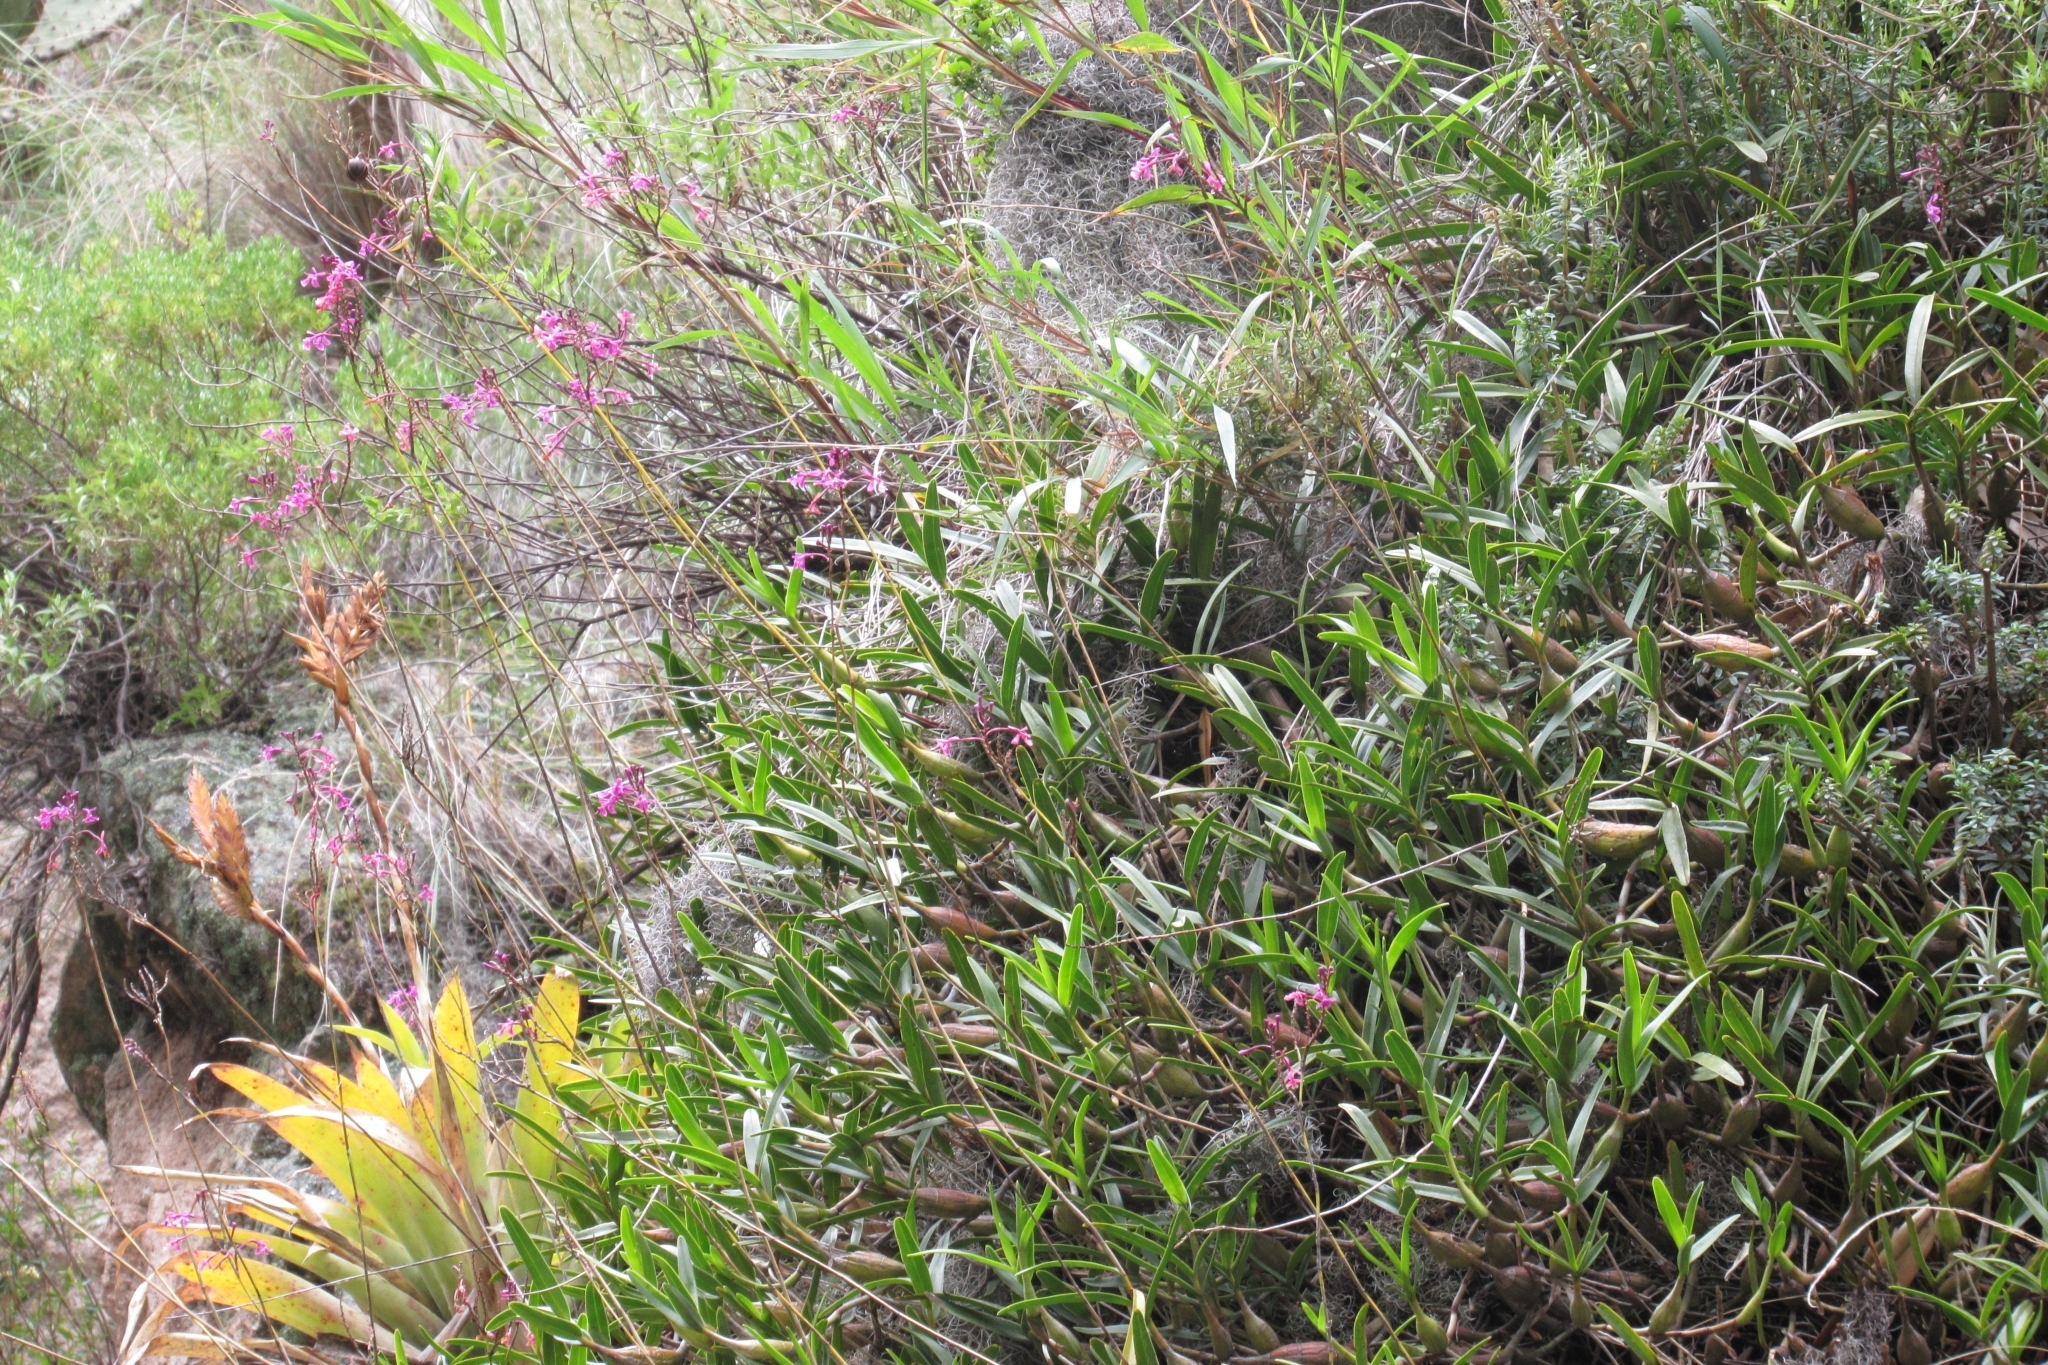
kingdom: Plantae
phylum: Tracheophyta
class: Liliopsida
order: Asparagales
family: Orchidaceae
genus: Epidendrum
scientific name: Epidendrum blepharistes
